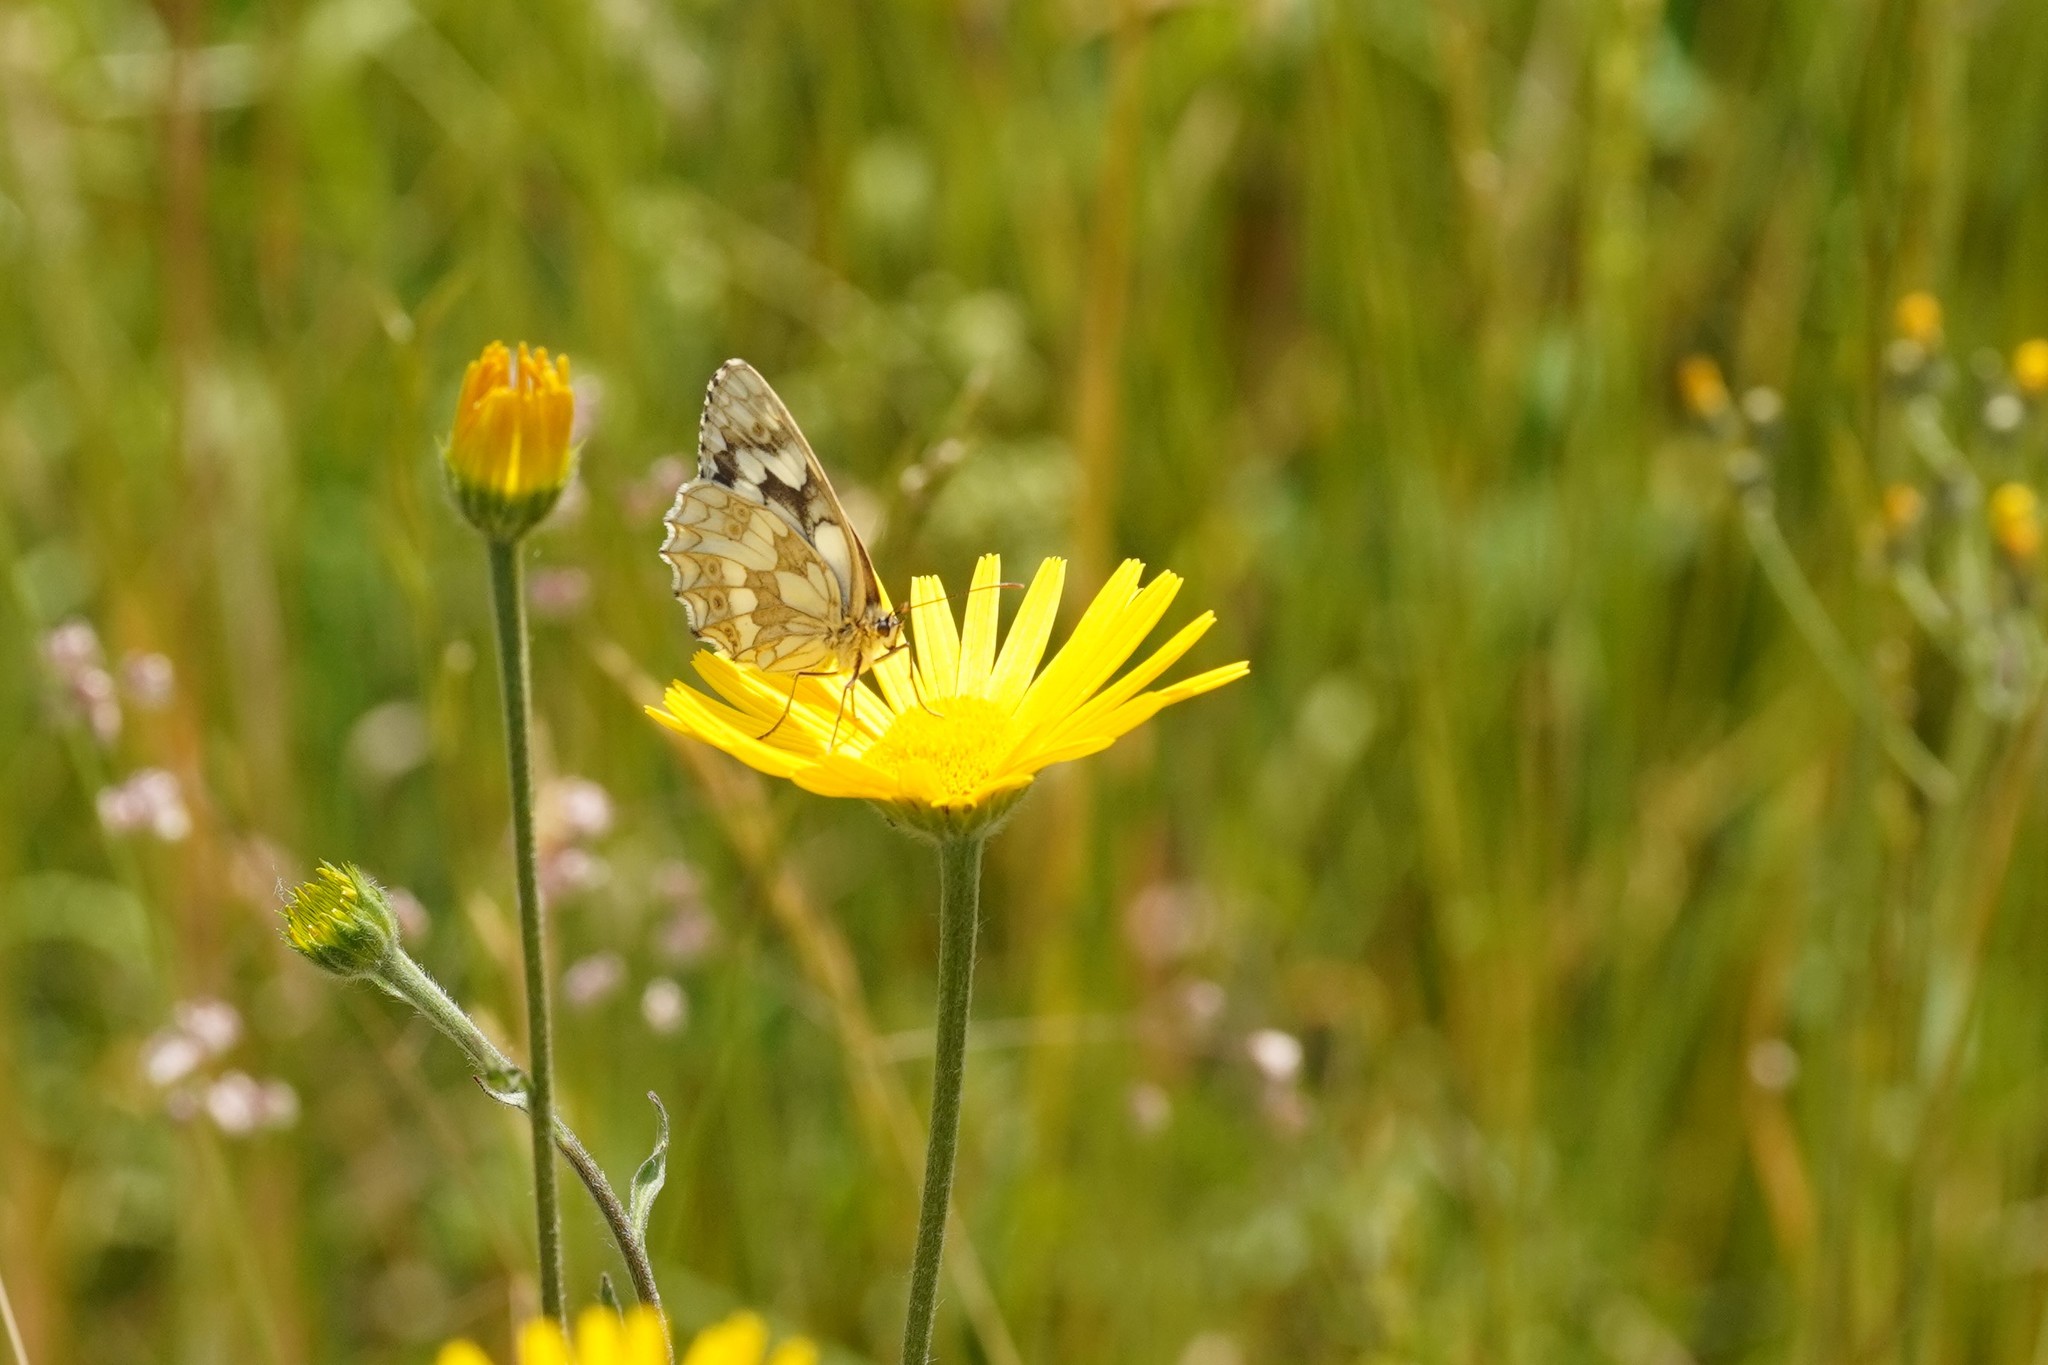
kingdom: Animalia
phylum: Arthropoda
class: Insecta
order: Lepidoptera
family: Nymphalidae
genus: Melanargia
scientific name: Melanargia galathea
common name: Marbled white
